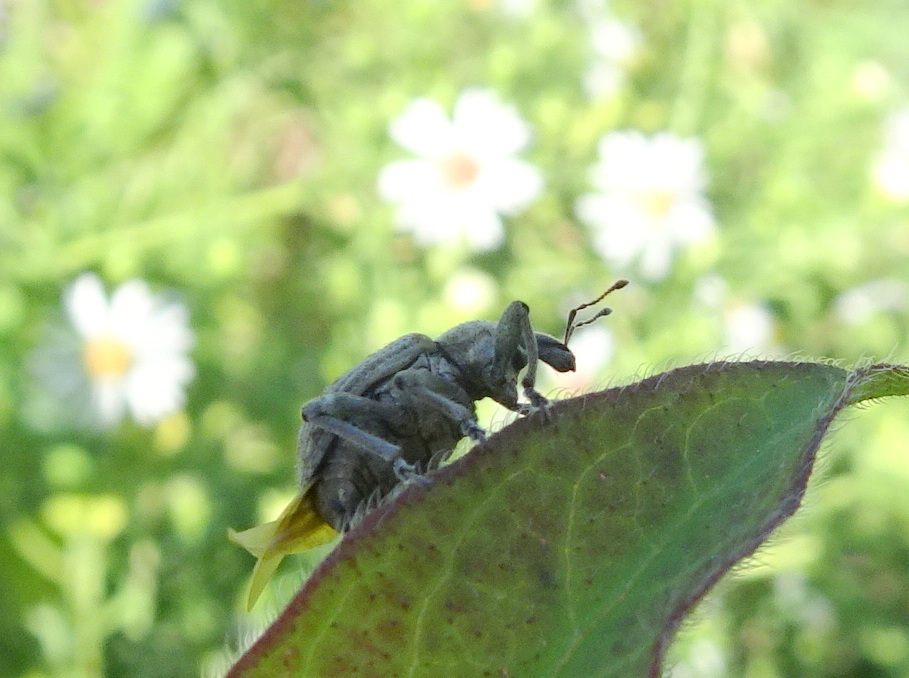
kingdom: Animalia
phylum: Arthropoda
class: Insecta
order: Coleoptera
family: Curculionidae
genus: Brachypera
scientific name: Brachypera zoilus
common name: Clover leaf weevil
